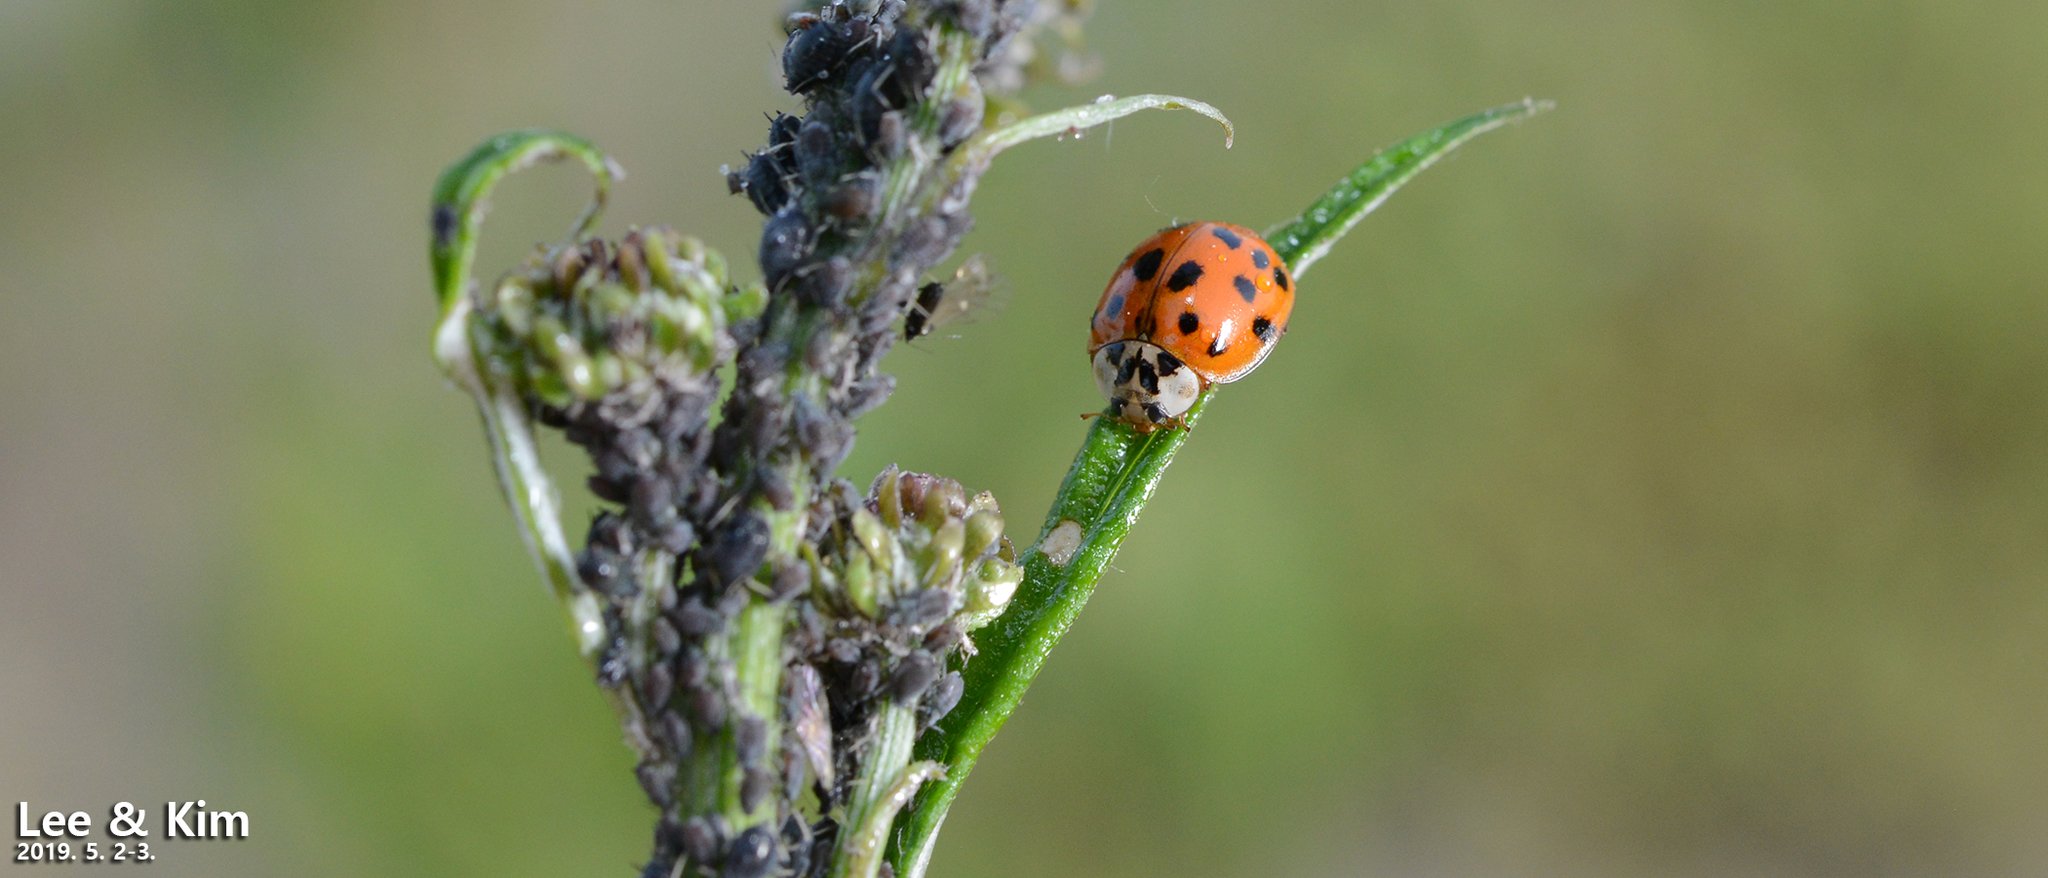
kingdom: Animalia
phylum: Arthropoda
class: Insecta
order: Coleoptera
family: Coccinellidae
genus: Harmonia
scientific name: Harmonia axyridis
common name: Harlequin ladybird
